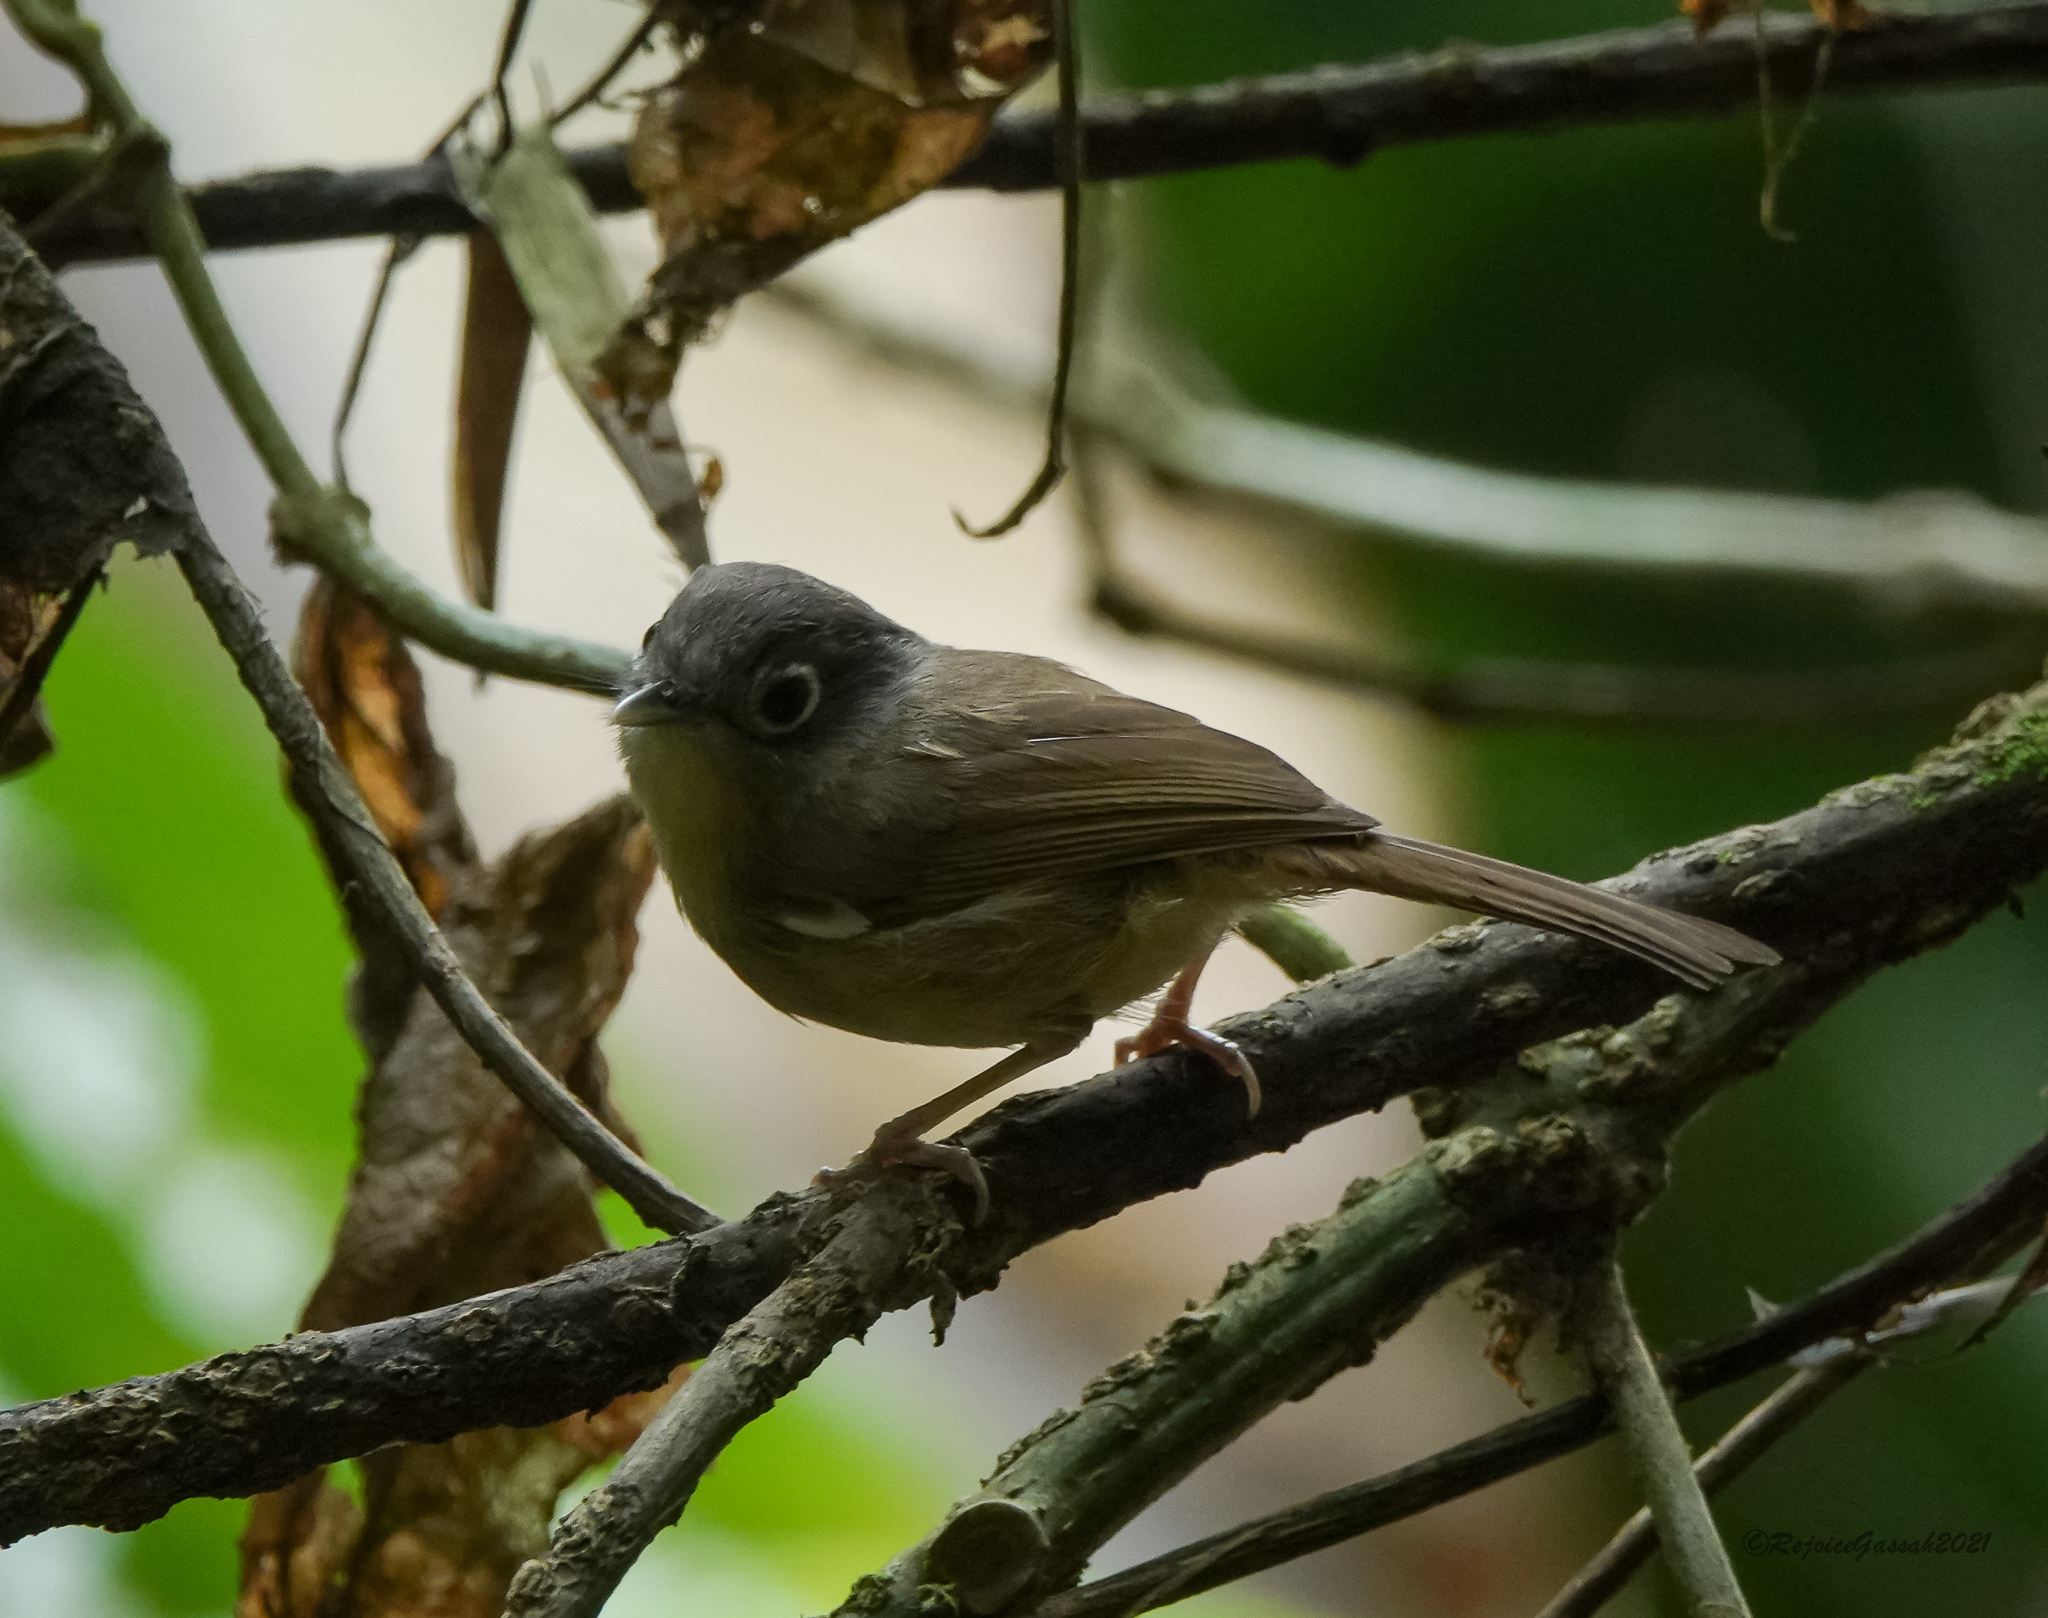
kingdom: Animalia
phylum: Chordata
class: Aves
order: Passeriformes
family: Pellorneidae
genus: Alcippe
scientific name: Alcippe nipalensis
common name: Nepal fulvetta
